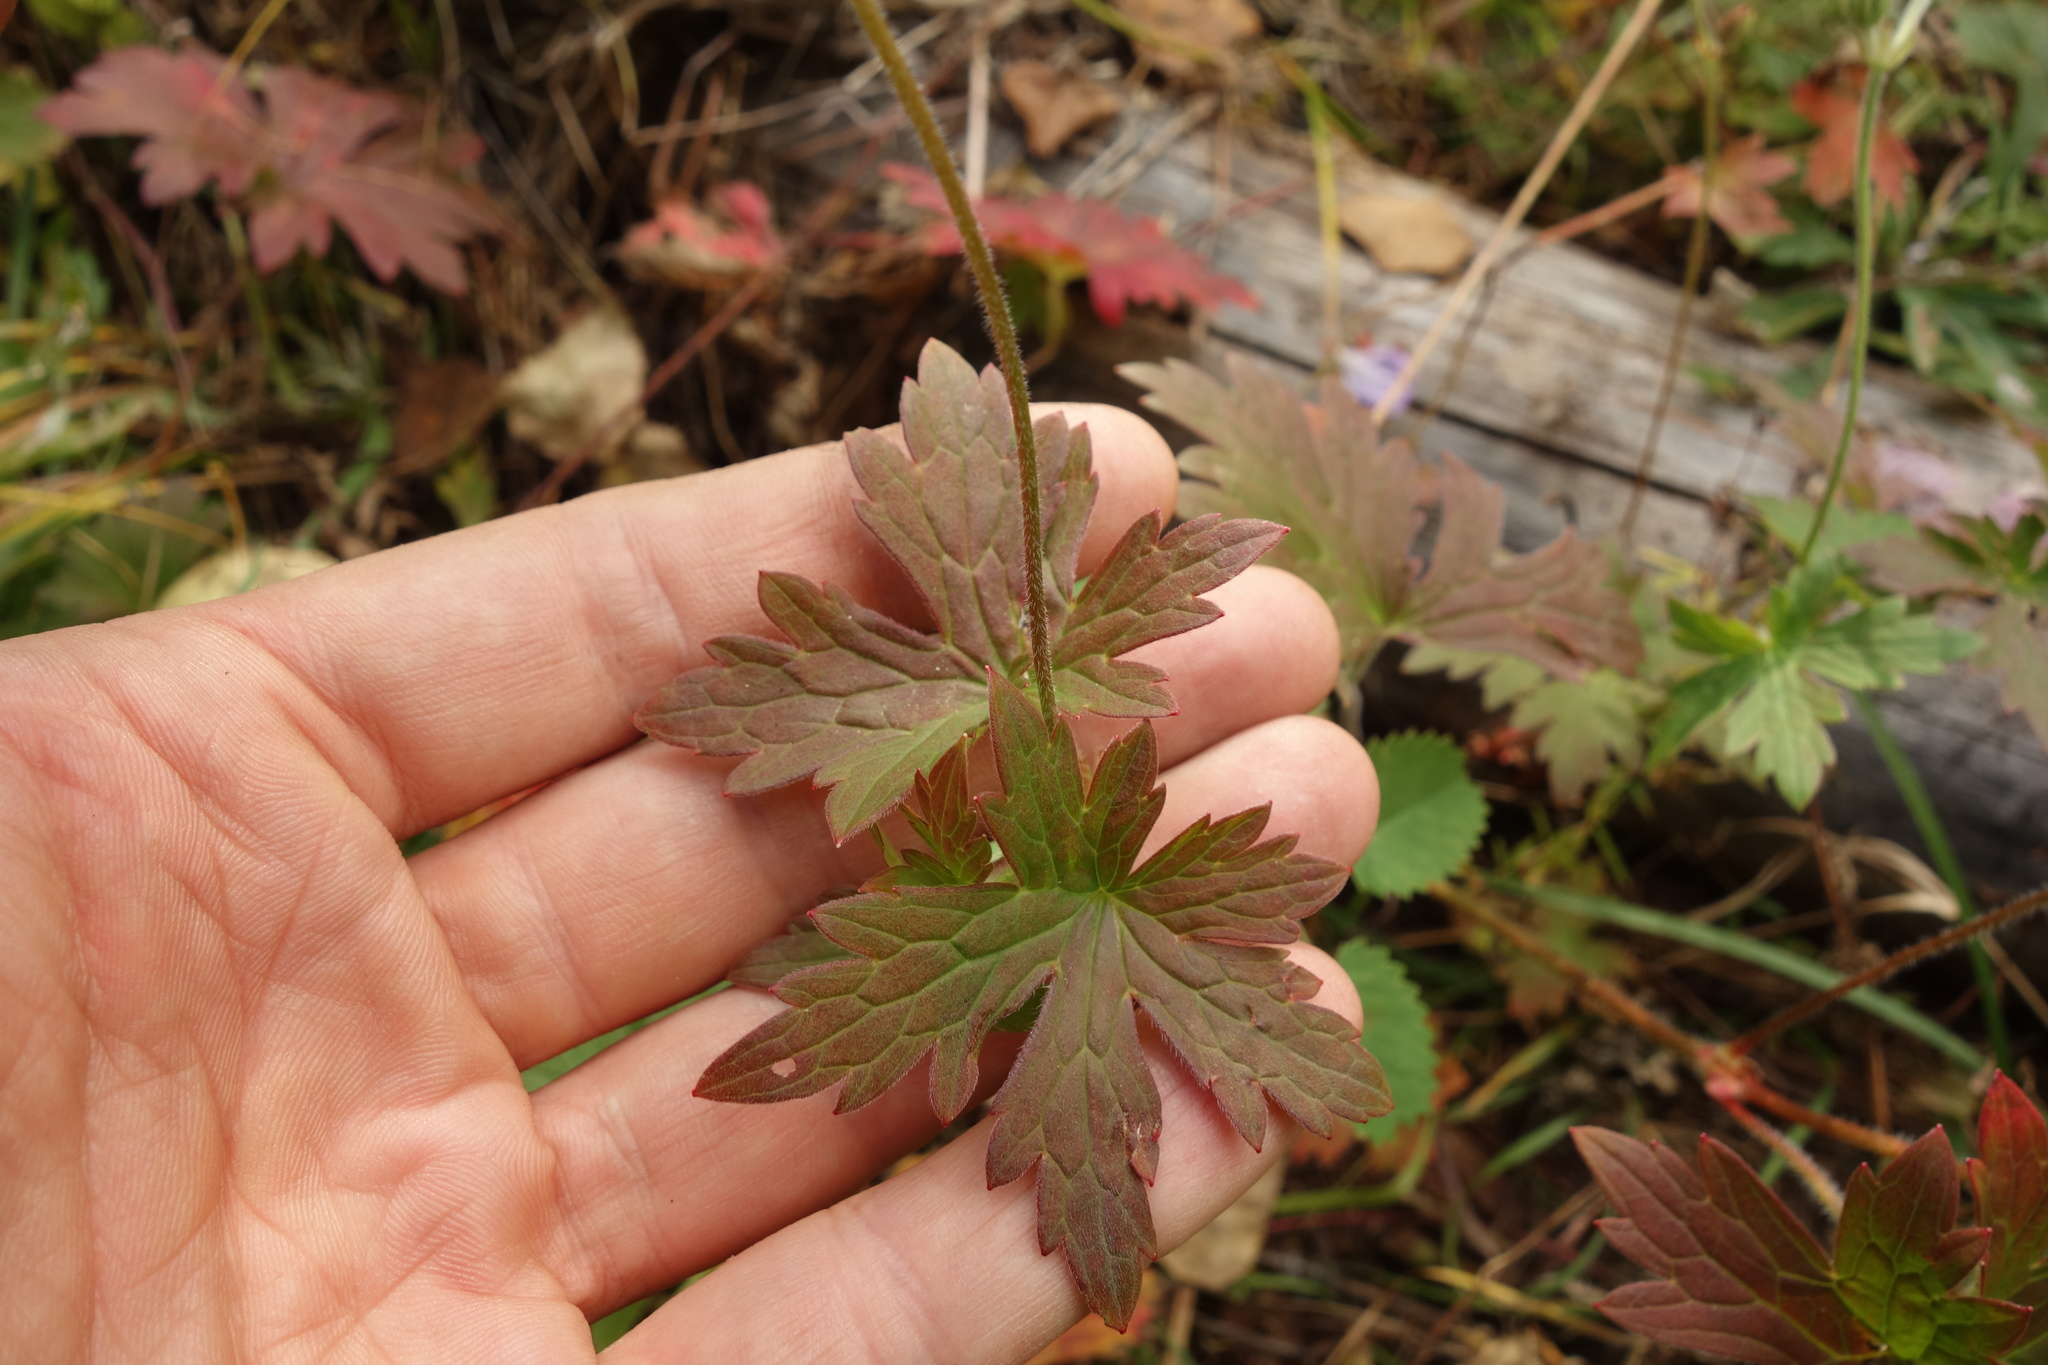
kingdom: Plantae
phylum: Tracheophyta
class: Magnoliopsida
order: Geraniales
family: Geraniaceae
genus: Geranium
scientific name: Geranium wlassovianum
